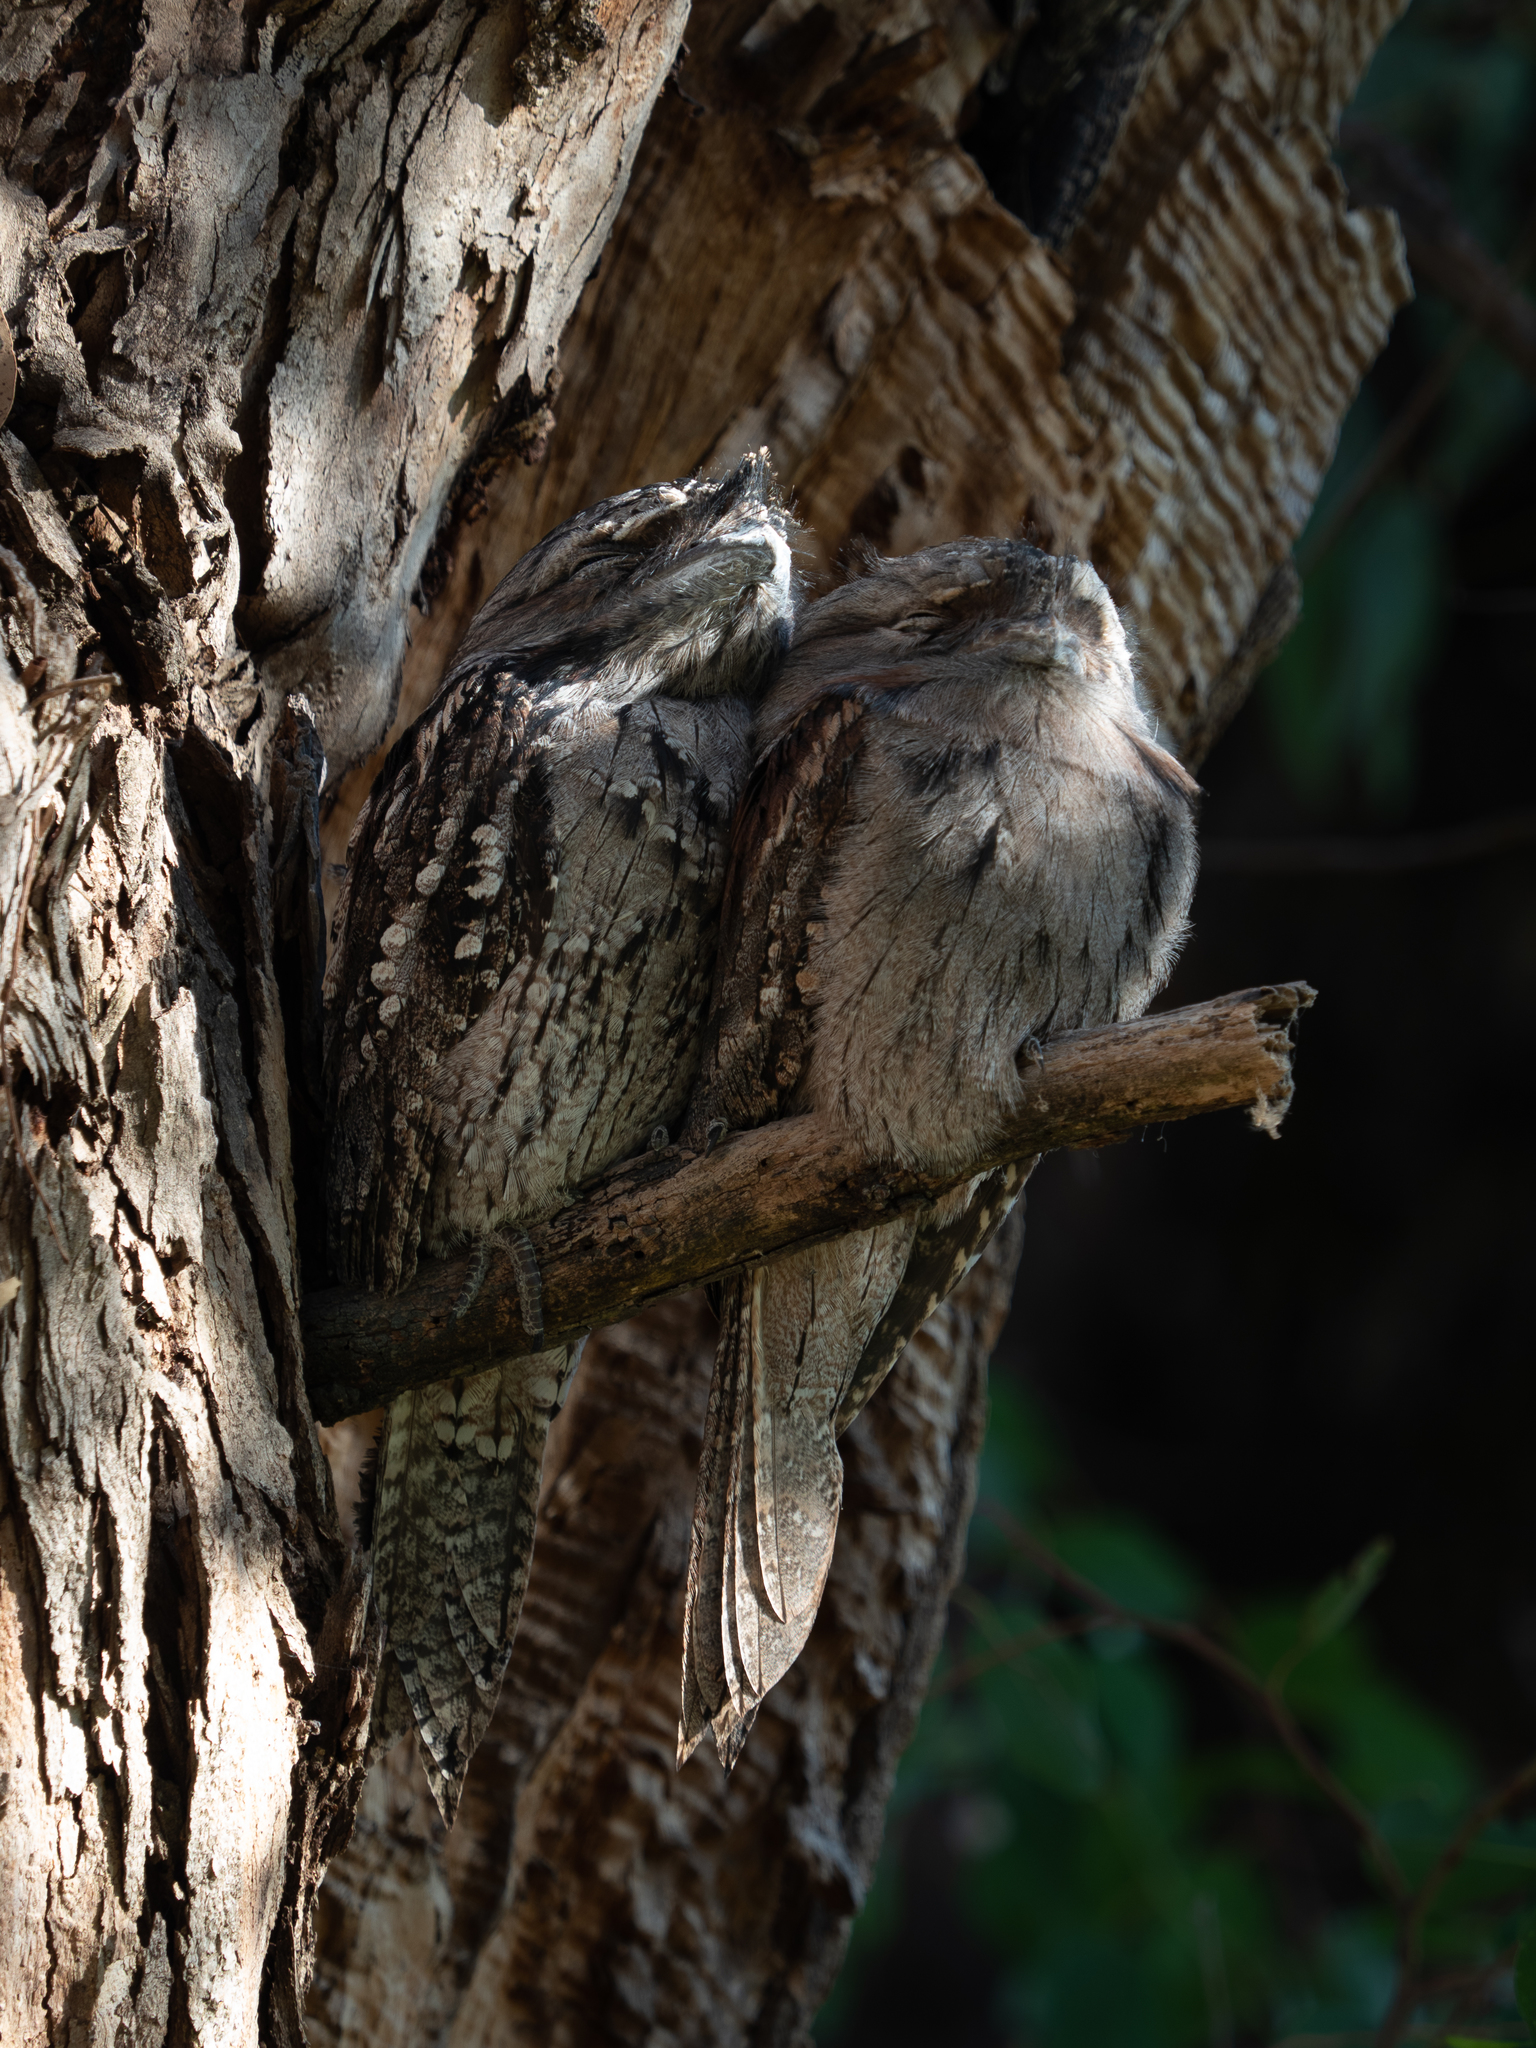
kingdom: Animalia
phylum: Chordata
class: Aves
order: Caprimulgiformes
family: Podargidae
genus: Podargus
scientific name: Podargus strigoides
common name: Tawny frogmouth
